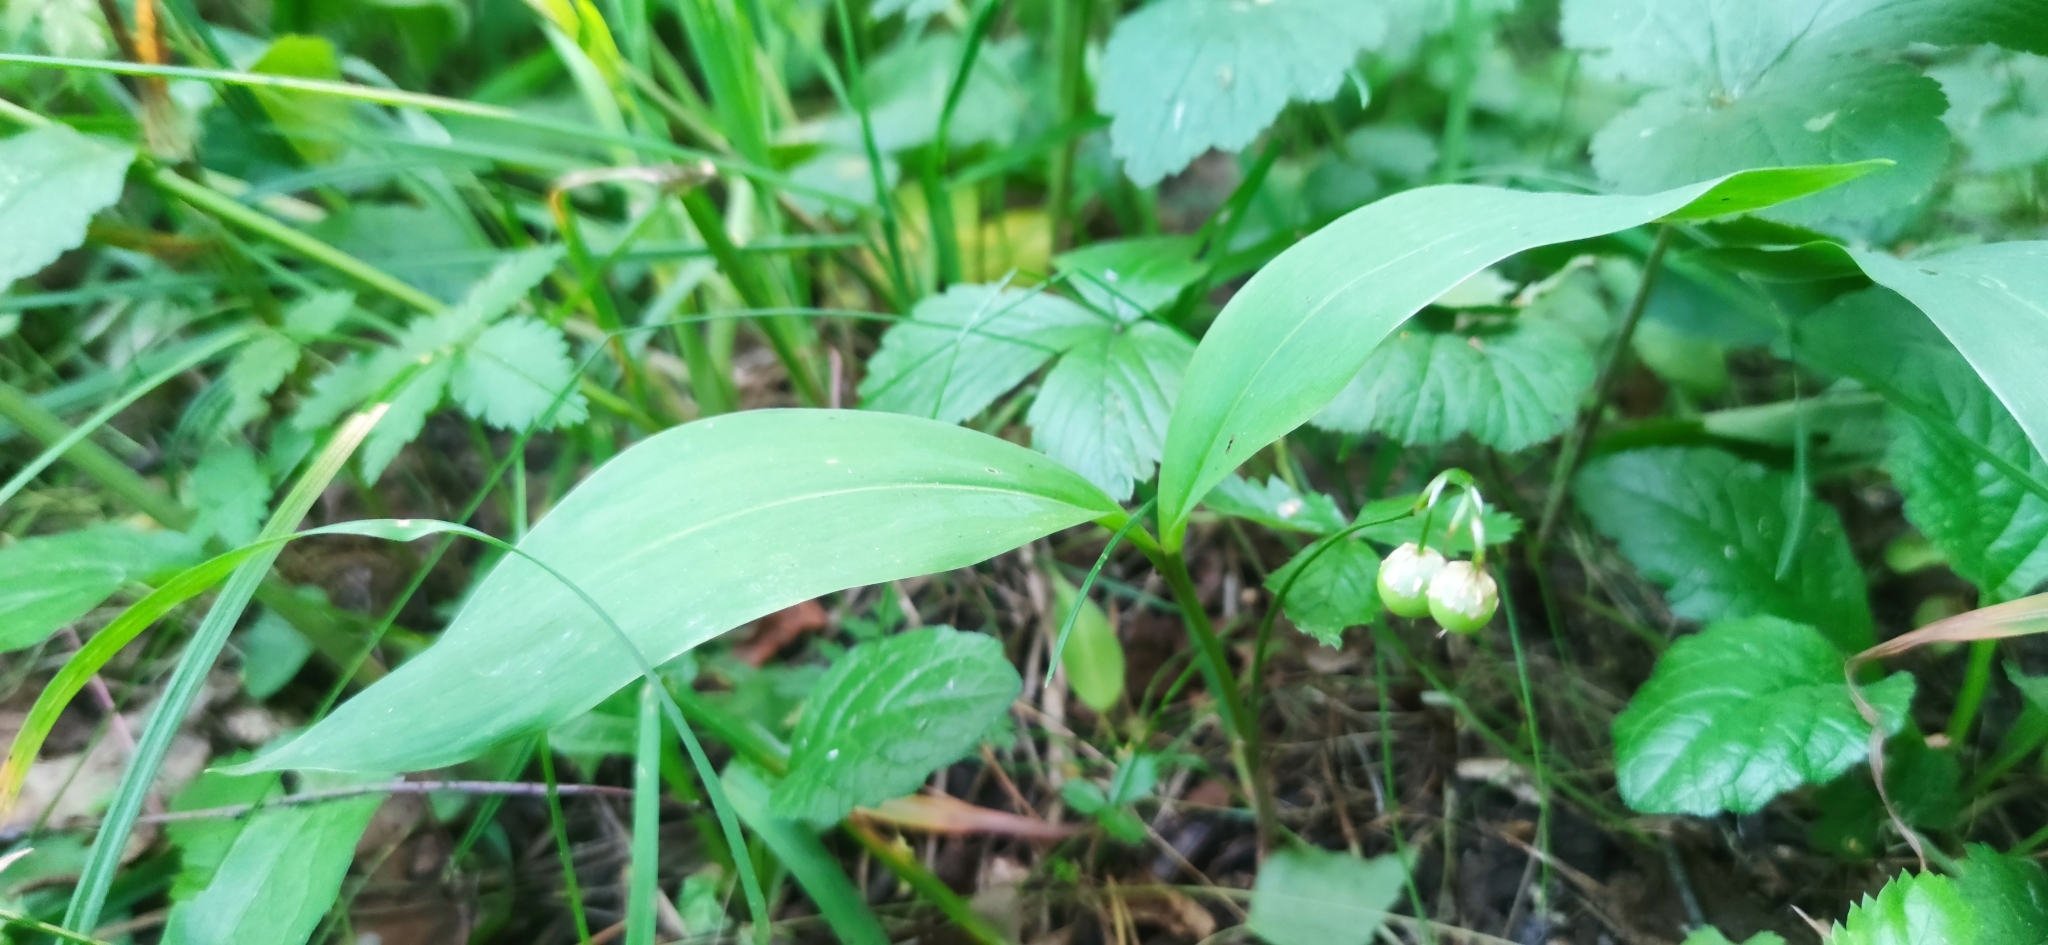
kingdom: Plantae
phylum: Tracheophyta
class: Liliopsida
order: Asparagales
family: Asparagaceae
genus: Convallaria
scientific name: Convallaria majalis
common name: Lily-of-the-valley
